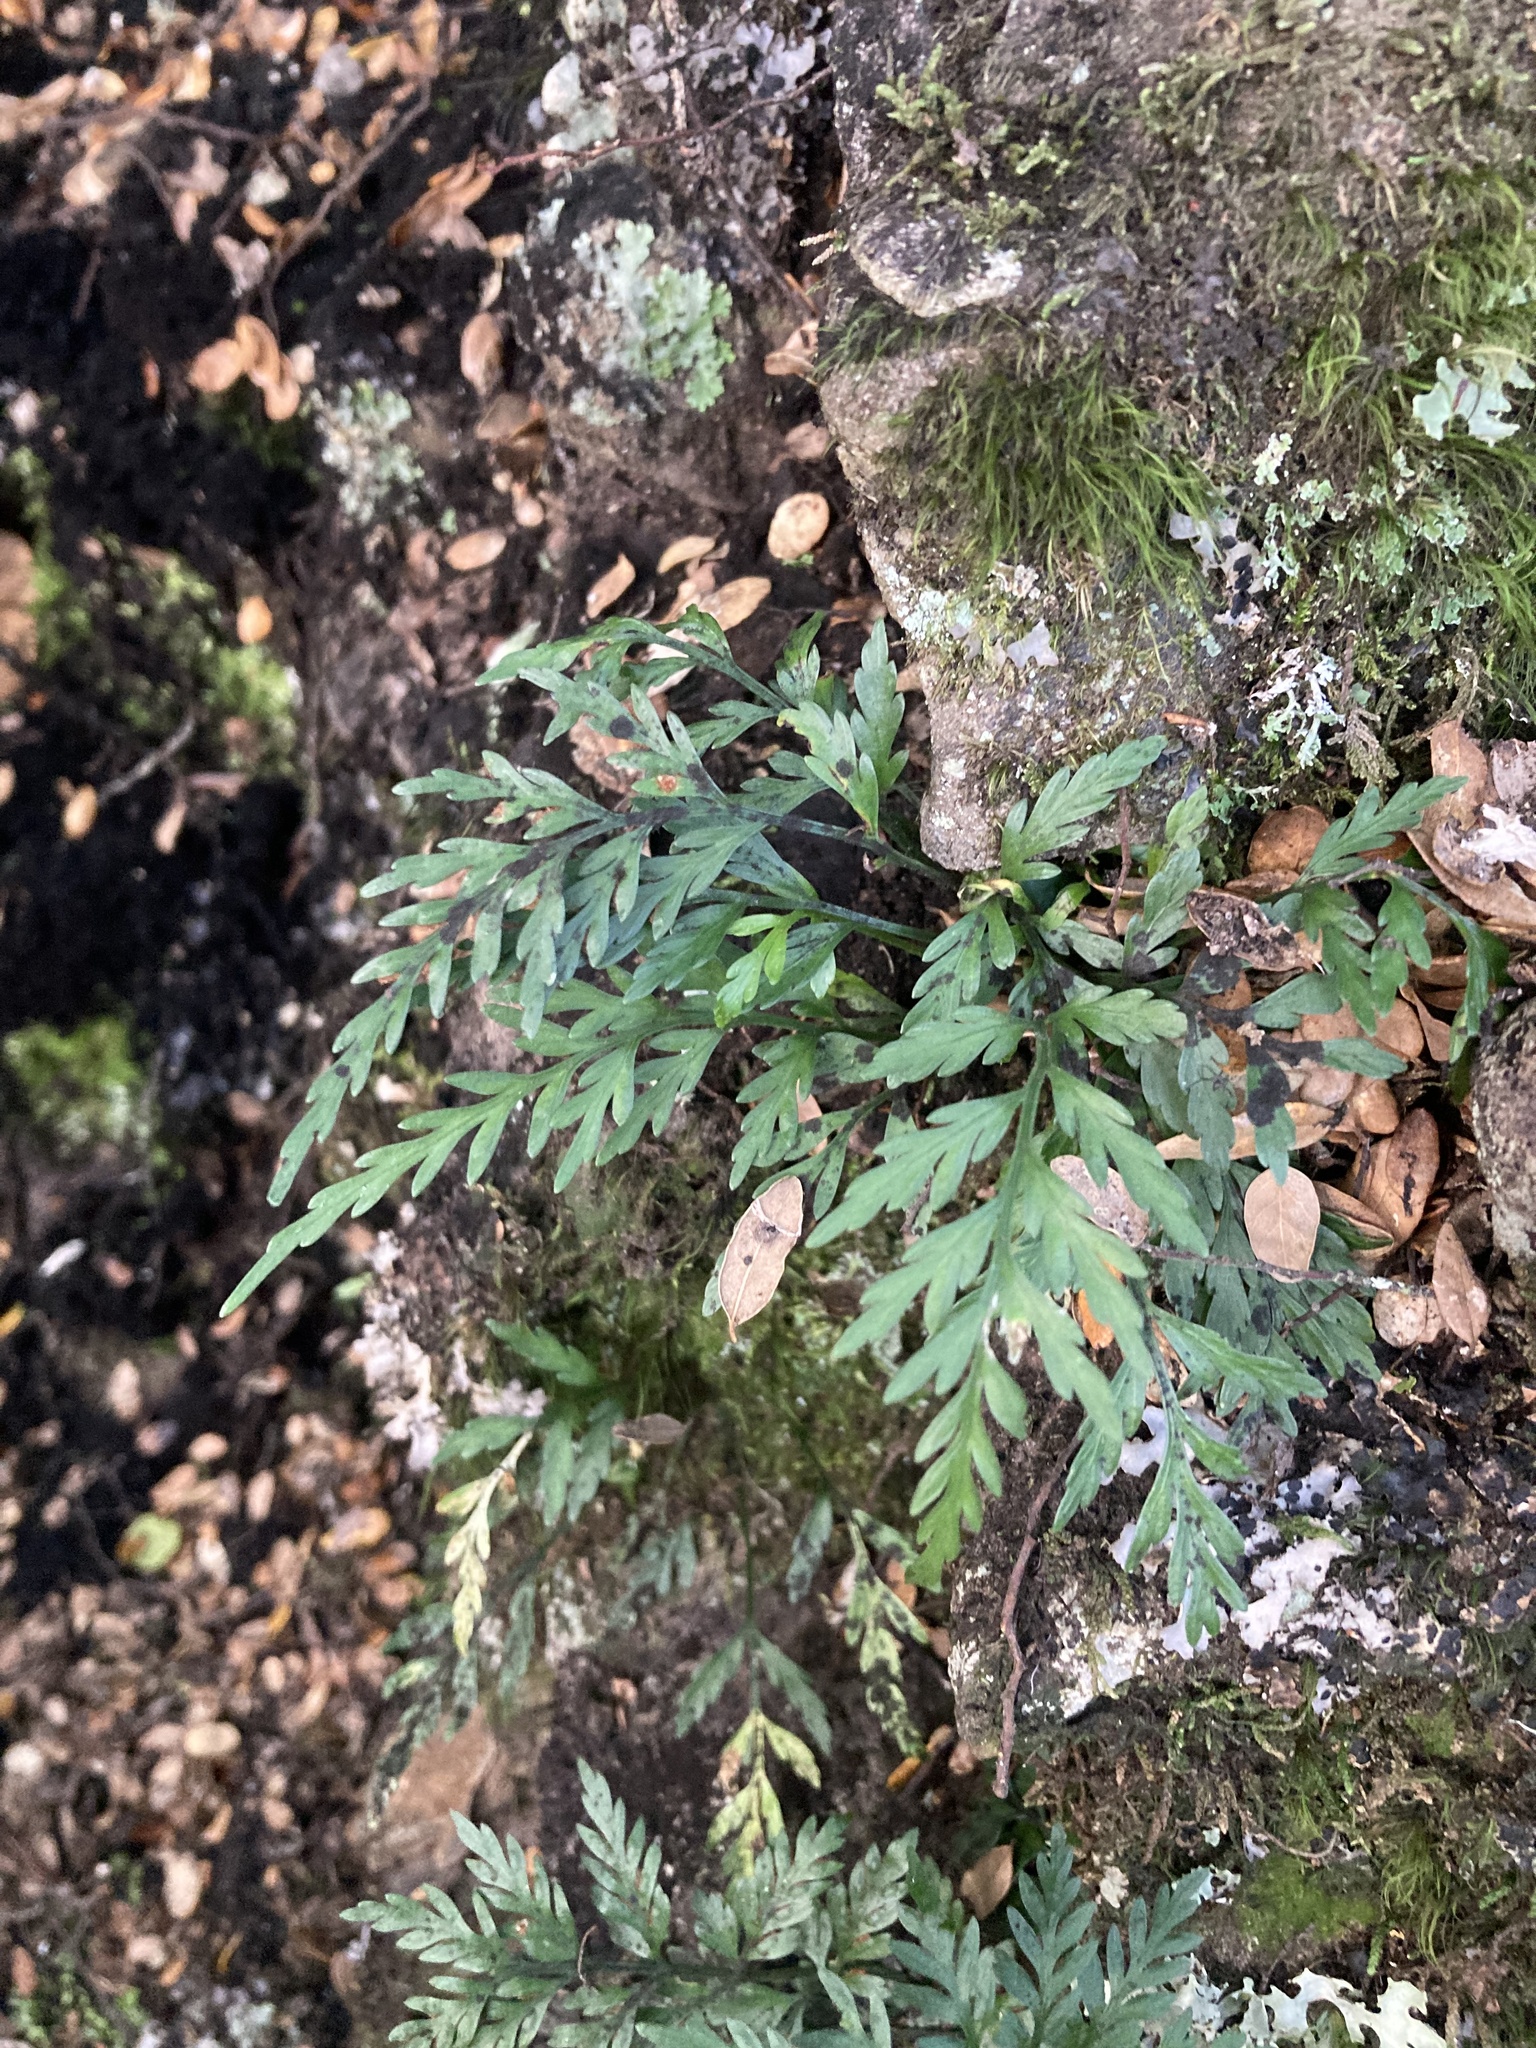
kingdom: Plantae
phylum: Tracheophyta
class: Polypodiopsida
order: Polypodiales
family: Aspleniaceae
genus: Asplenium
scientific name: Asplenium appendiculatum
